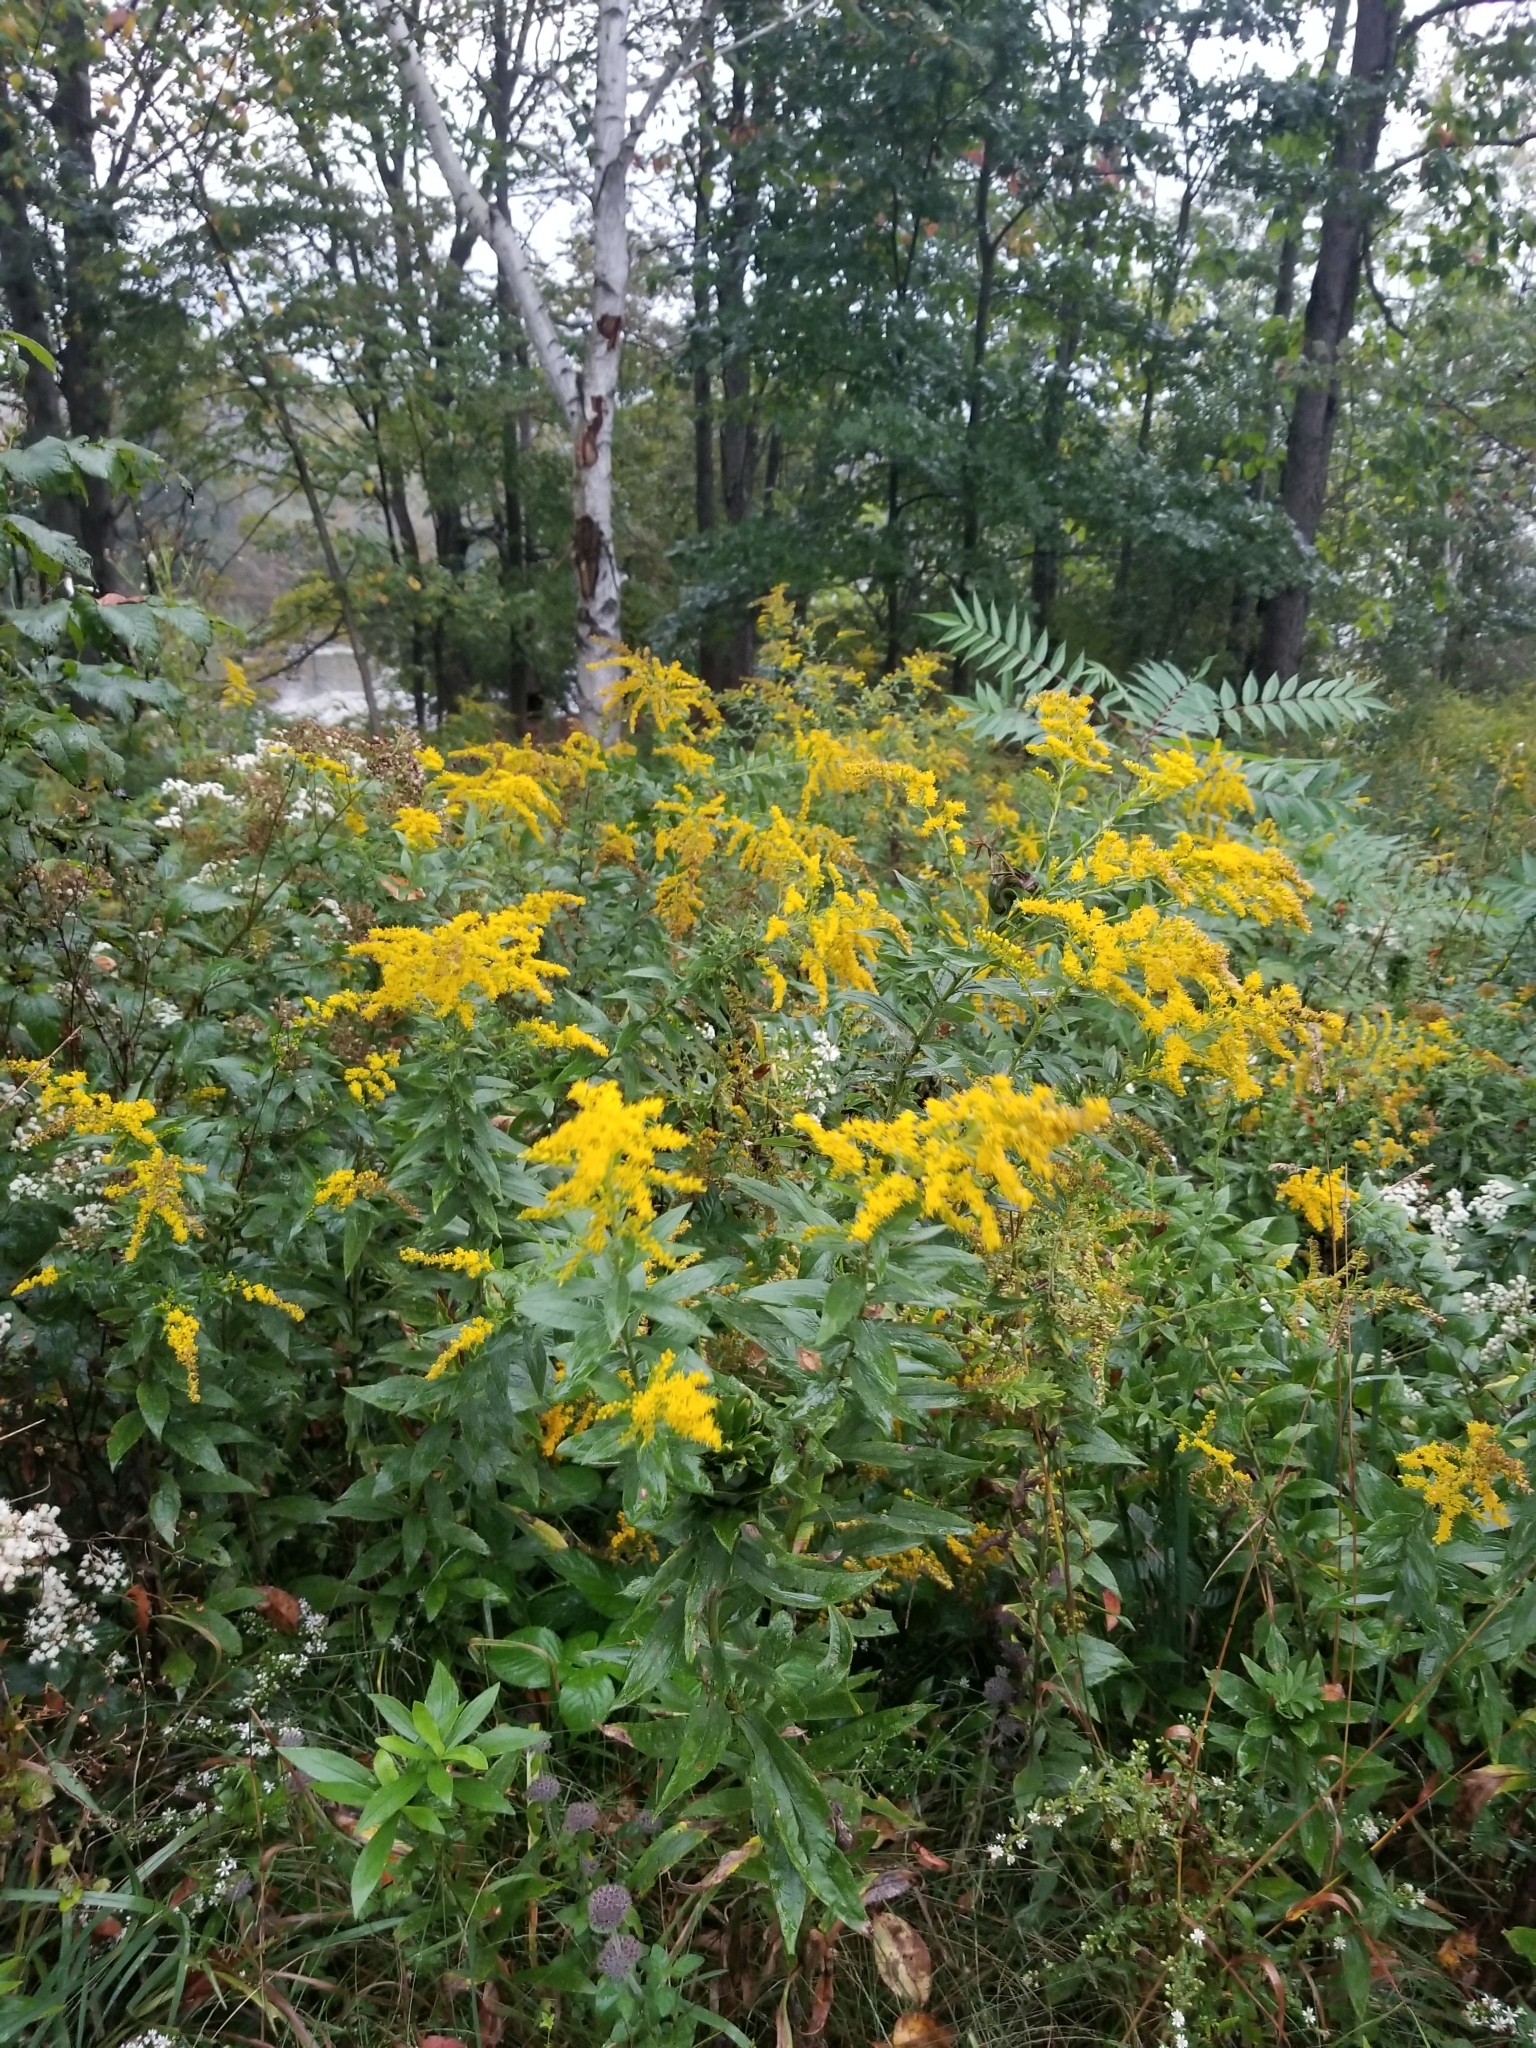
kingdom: Plantae
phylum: Tracheophyta
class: Magnoliopsida
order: Asterales
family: Asteraceae
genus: Solidago
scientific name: Solidago altissima
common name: Late goldenrod
